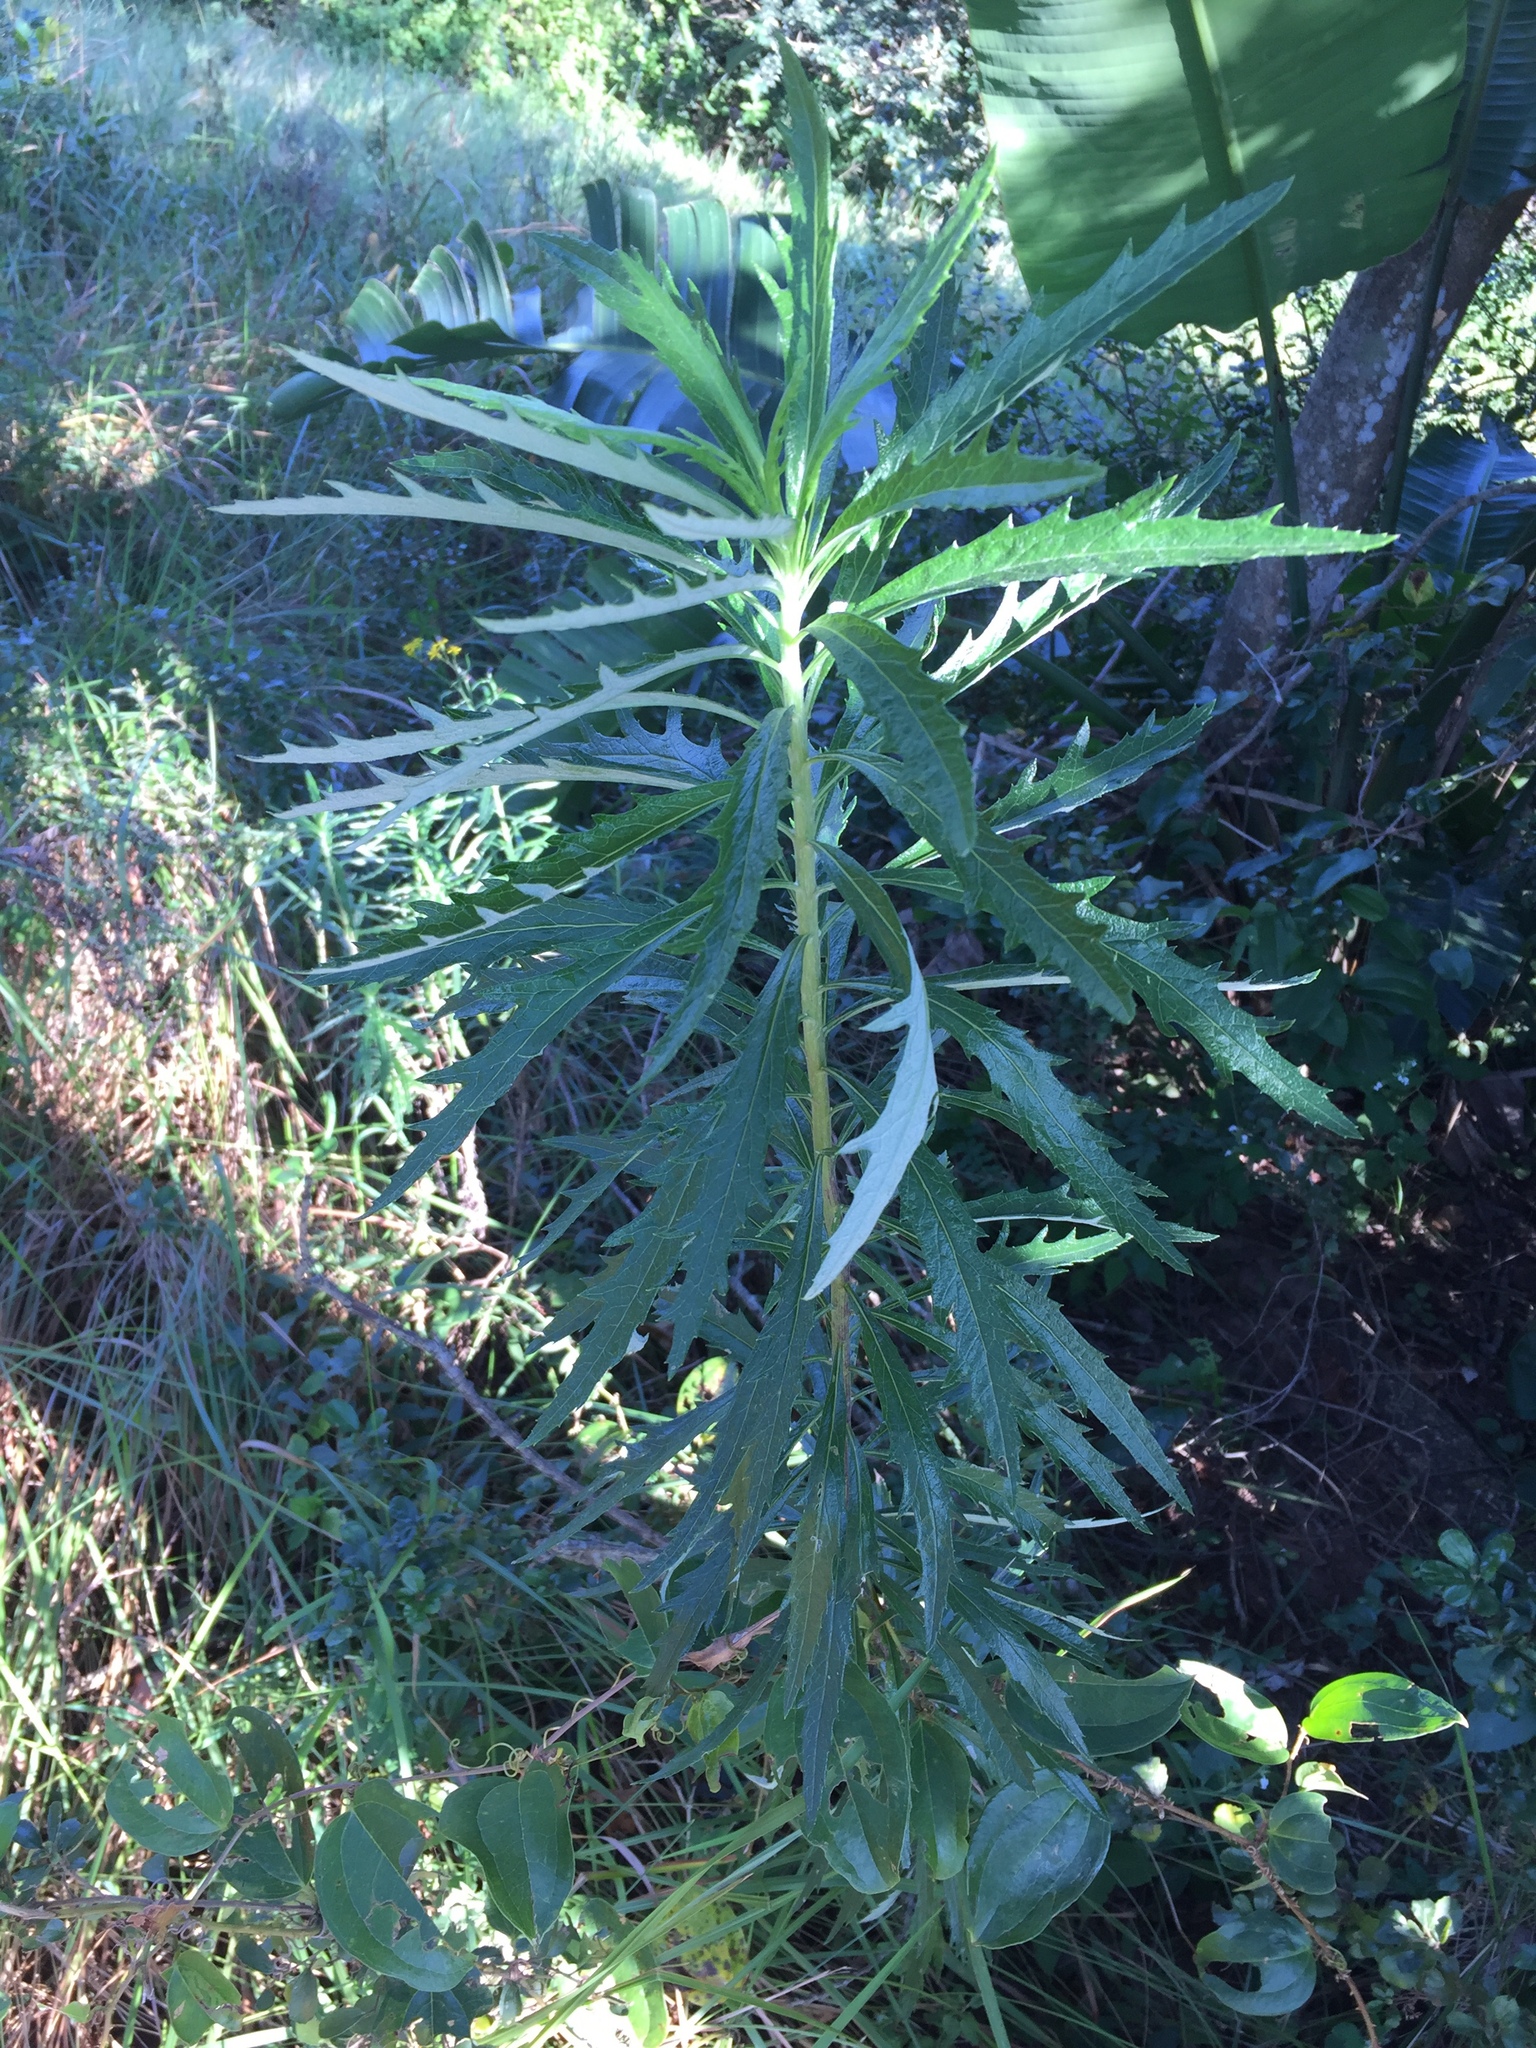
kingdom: Plantae
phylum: Tracheophyta
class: Magnoliopsida
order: Asterales
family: Asteraceae
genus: Senecio
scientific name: Senecio polyanthemoides
